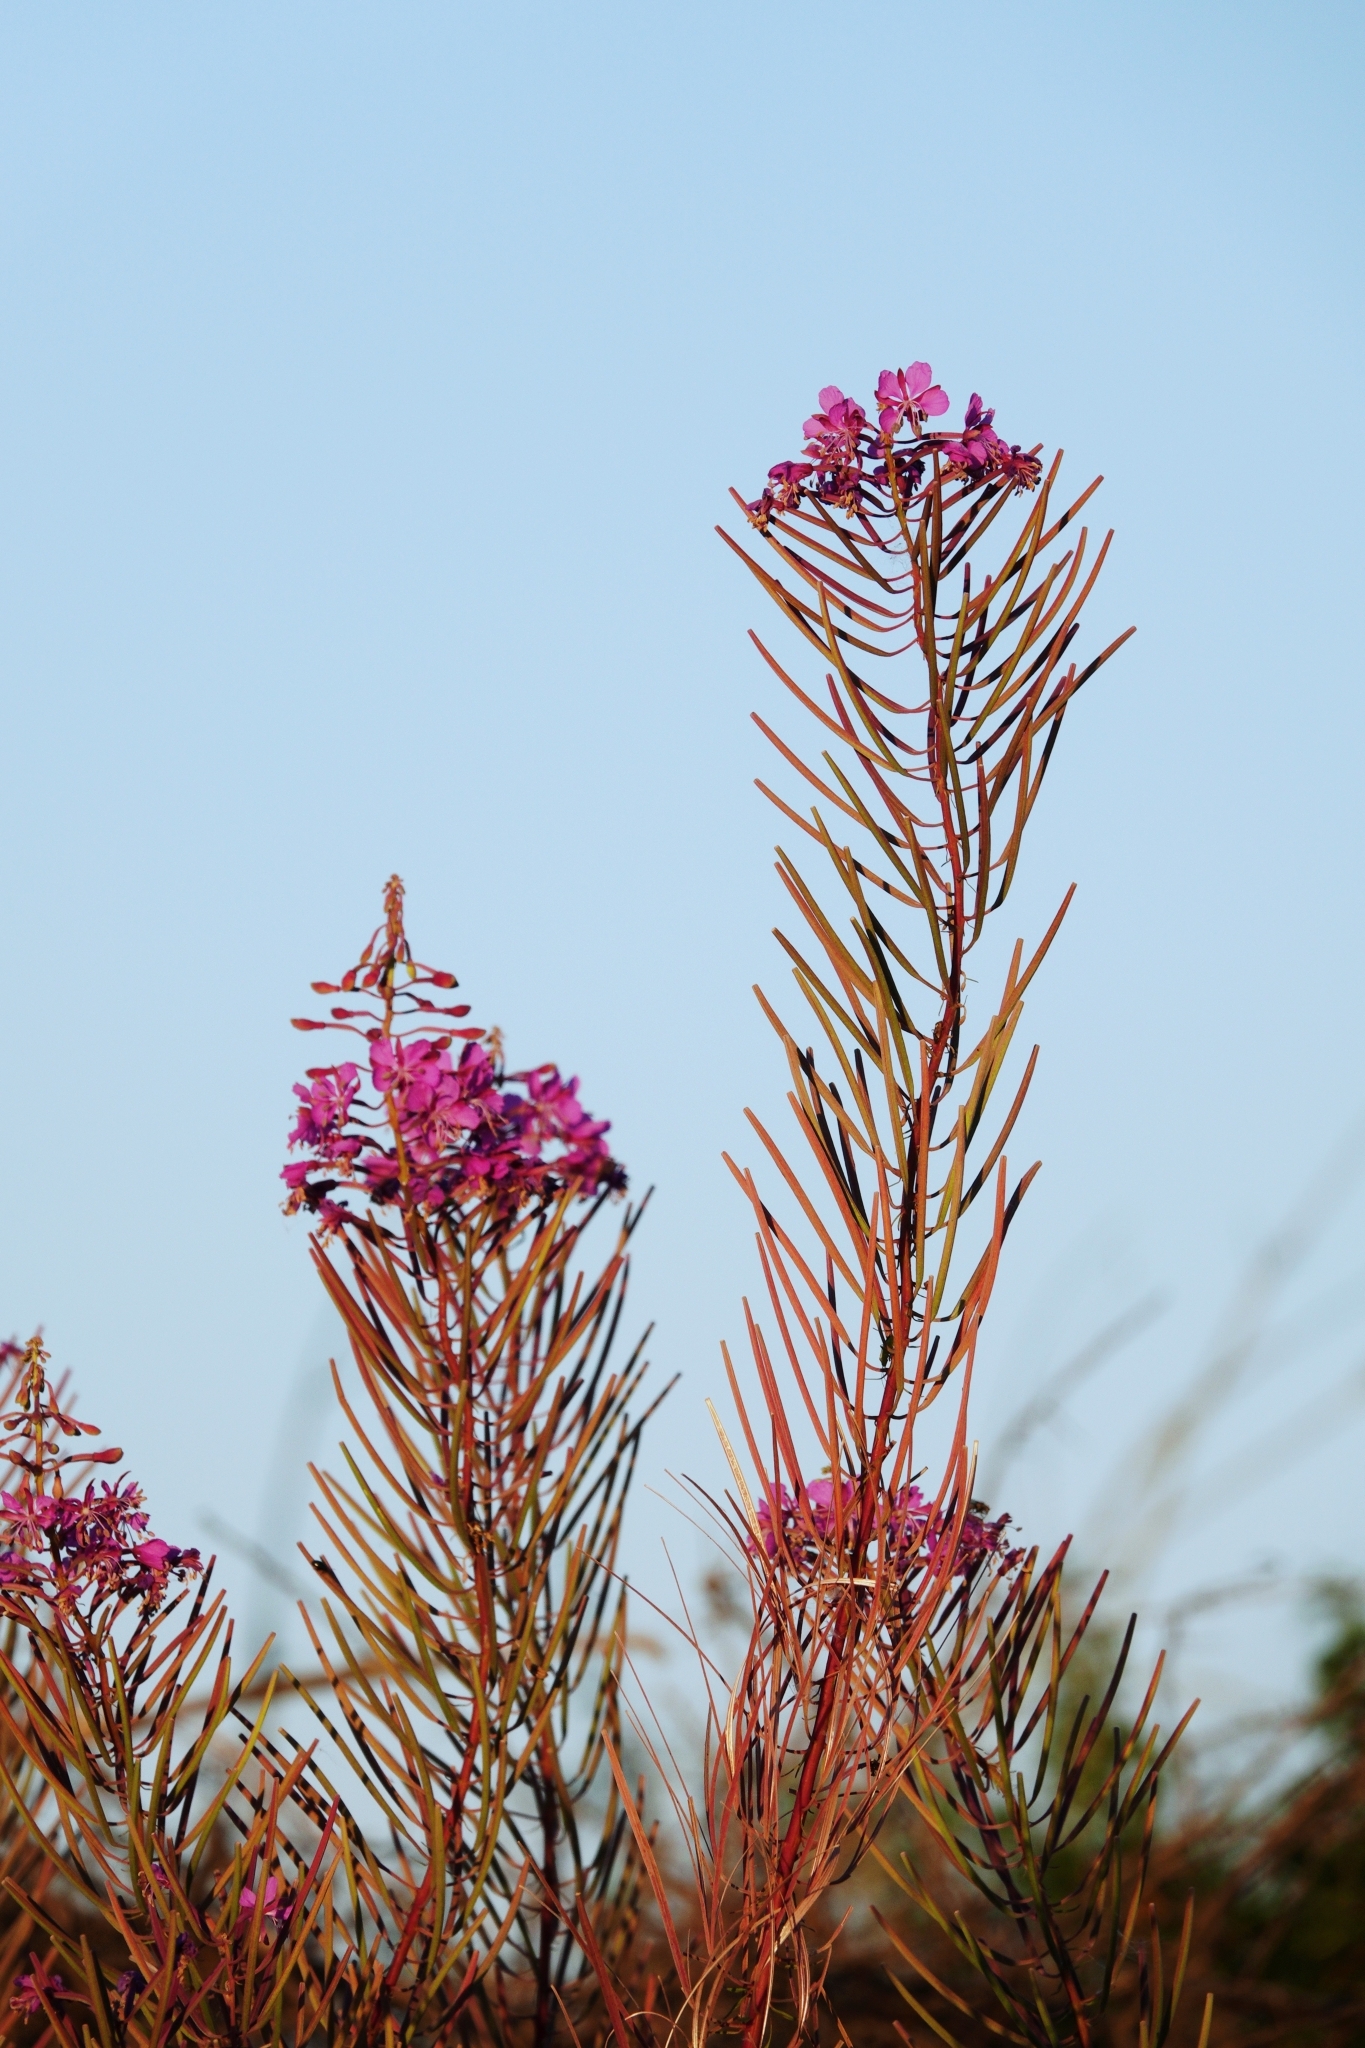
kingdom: Plantae
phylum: Tracheophyta
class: Magnoliopsida
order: Myrtales
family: Onagraceae
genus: Chamaenerion
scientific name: Chamaenerion angustifolium
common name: Fireweed
